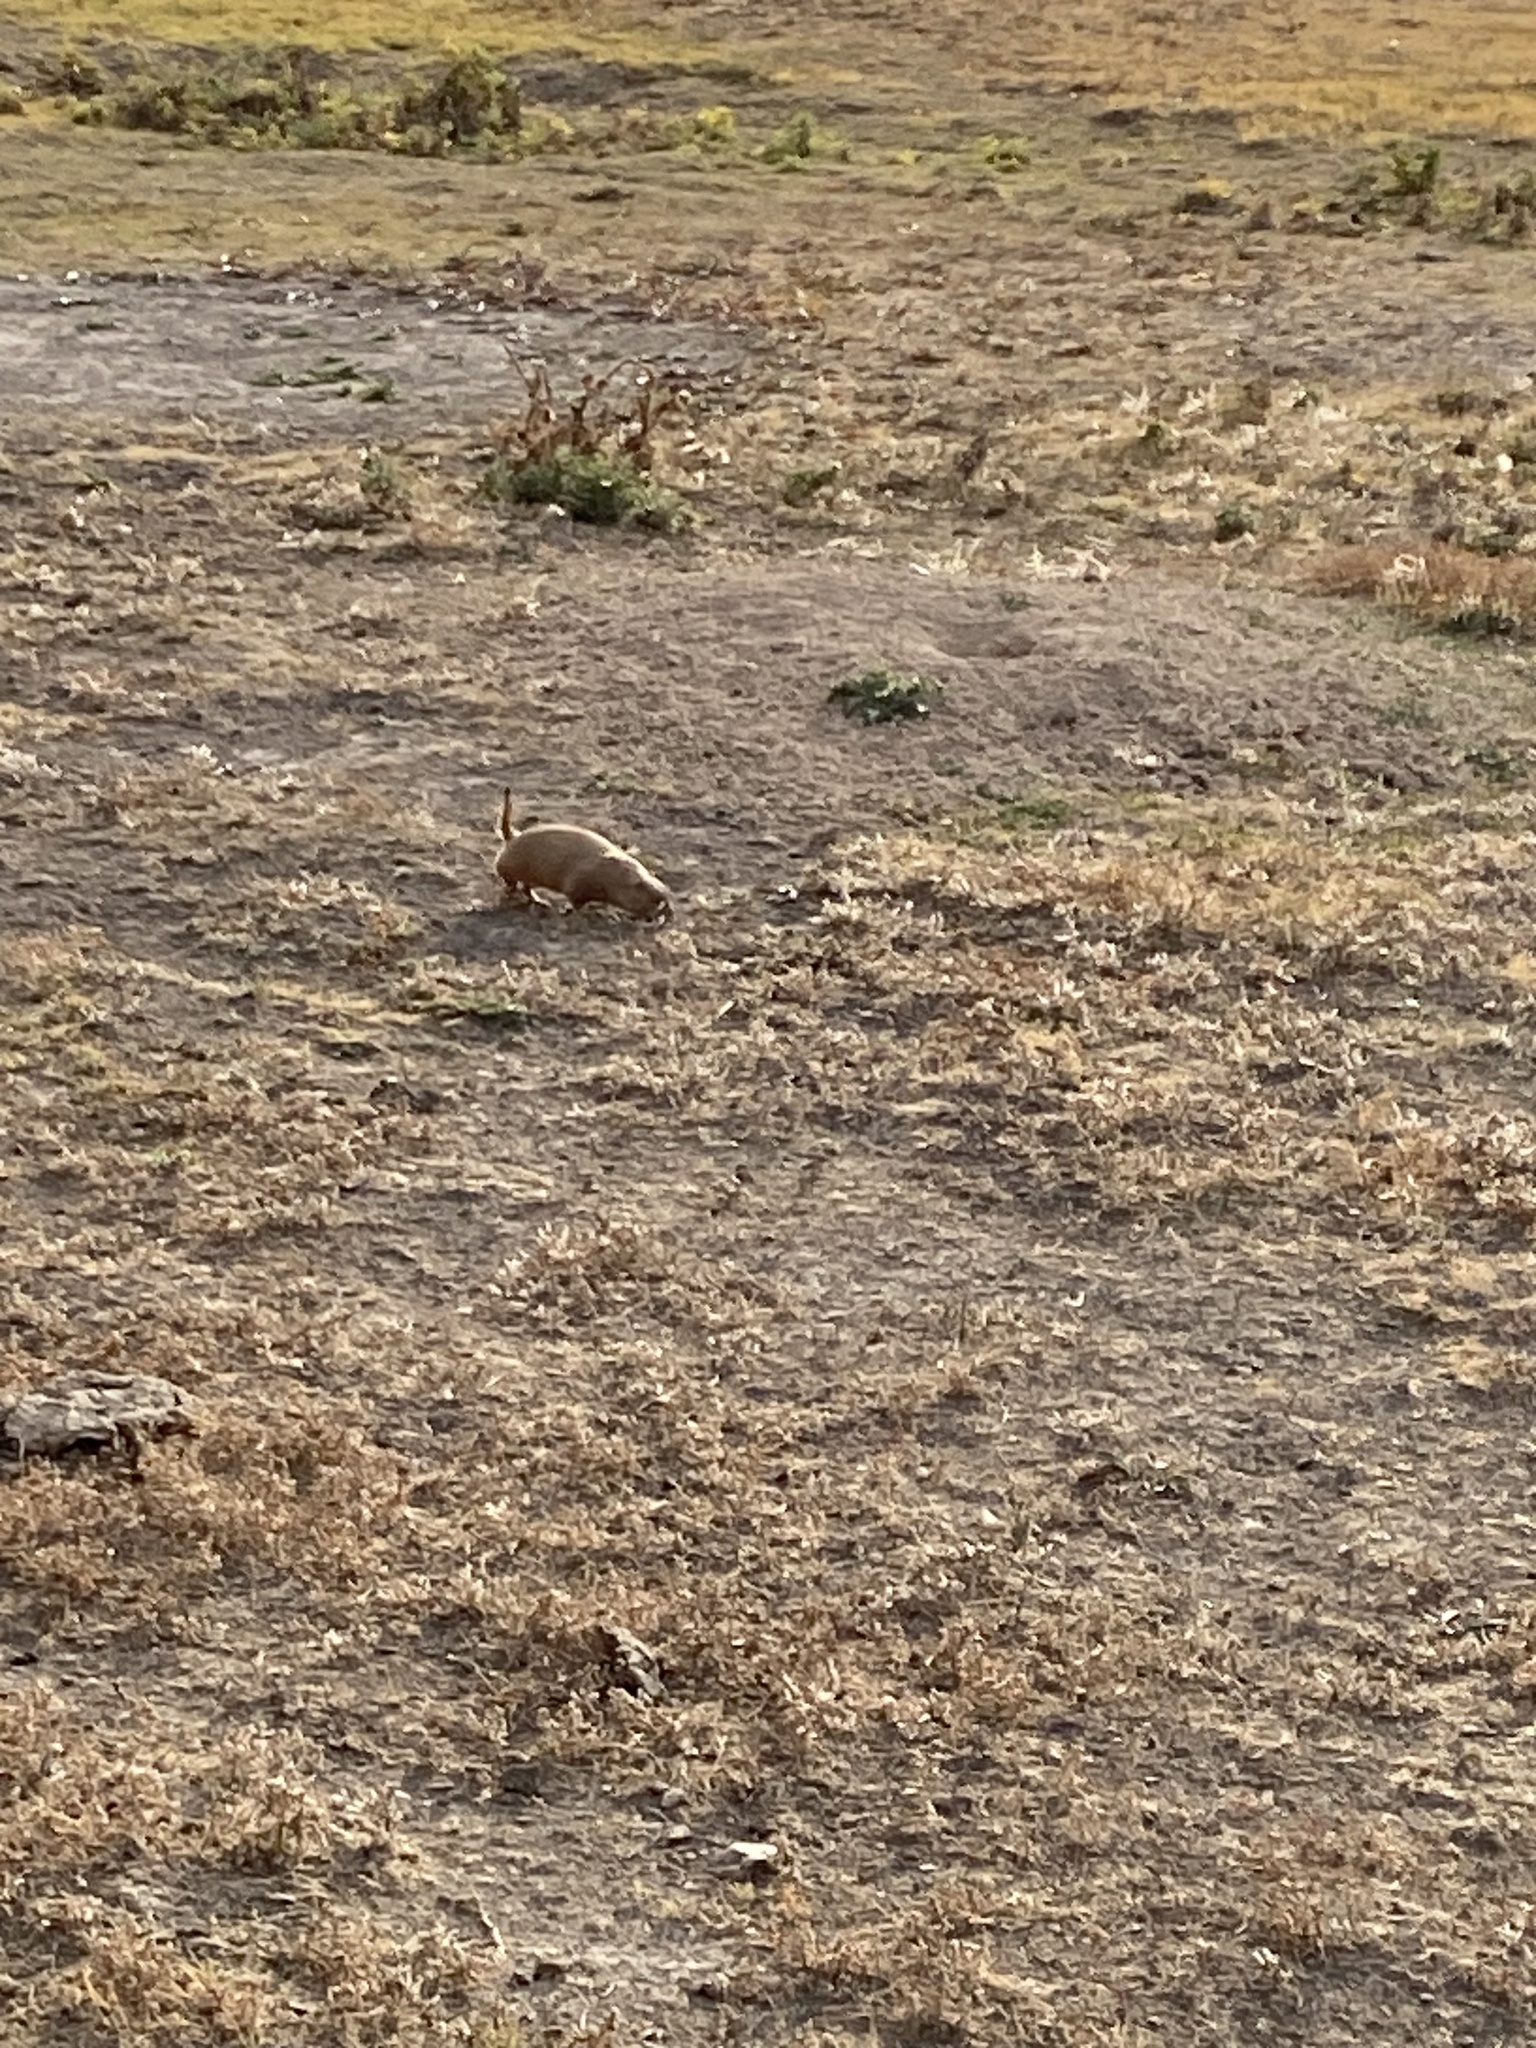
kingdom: Animalia
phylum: Chordata
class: Mammalia
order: Rodentia
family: Sciuridae
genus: Cynomys
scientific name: Cynomys ludovicianus
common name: Black-tailed prairie dog
